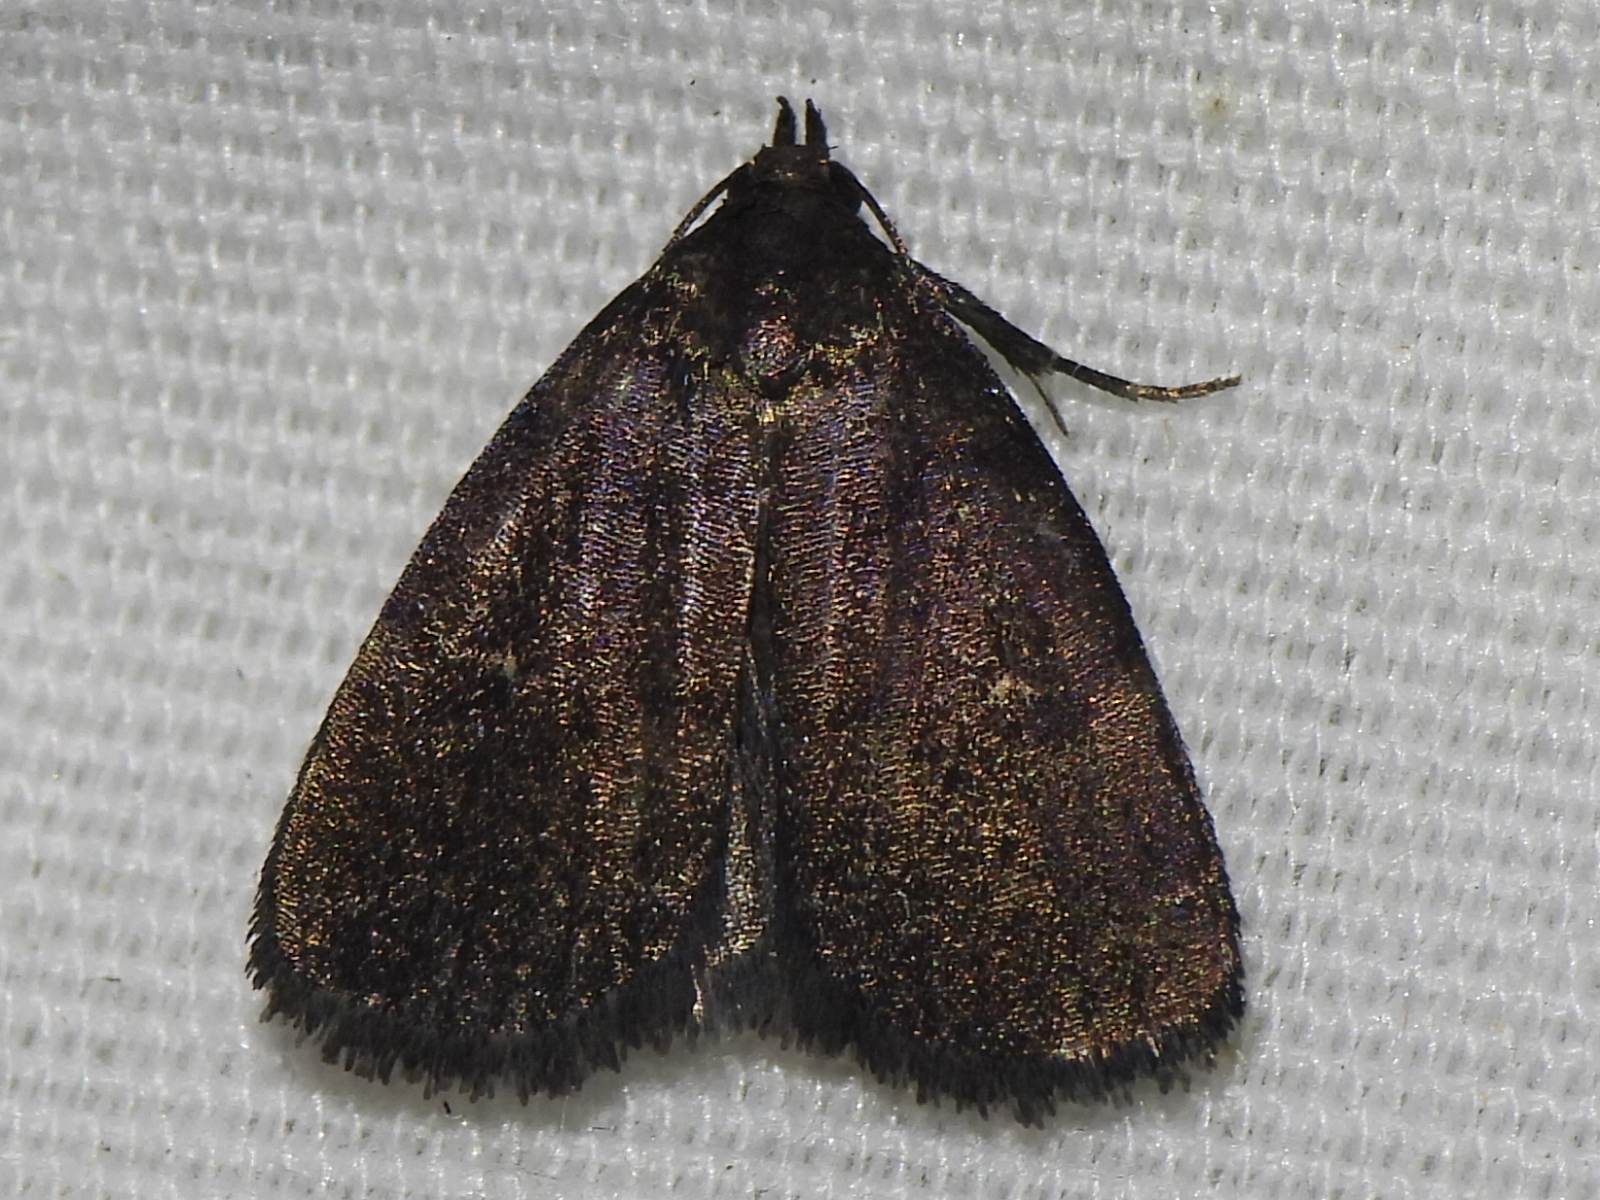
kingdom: Animalia
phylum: Arthropoda
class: Insecta
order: Lepidoptera
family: Erebidae
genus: Idia
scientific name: Idia rotundalis
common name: Rotund idia moth
